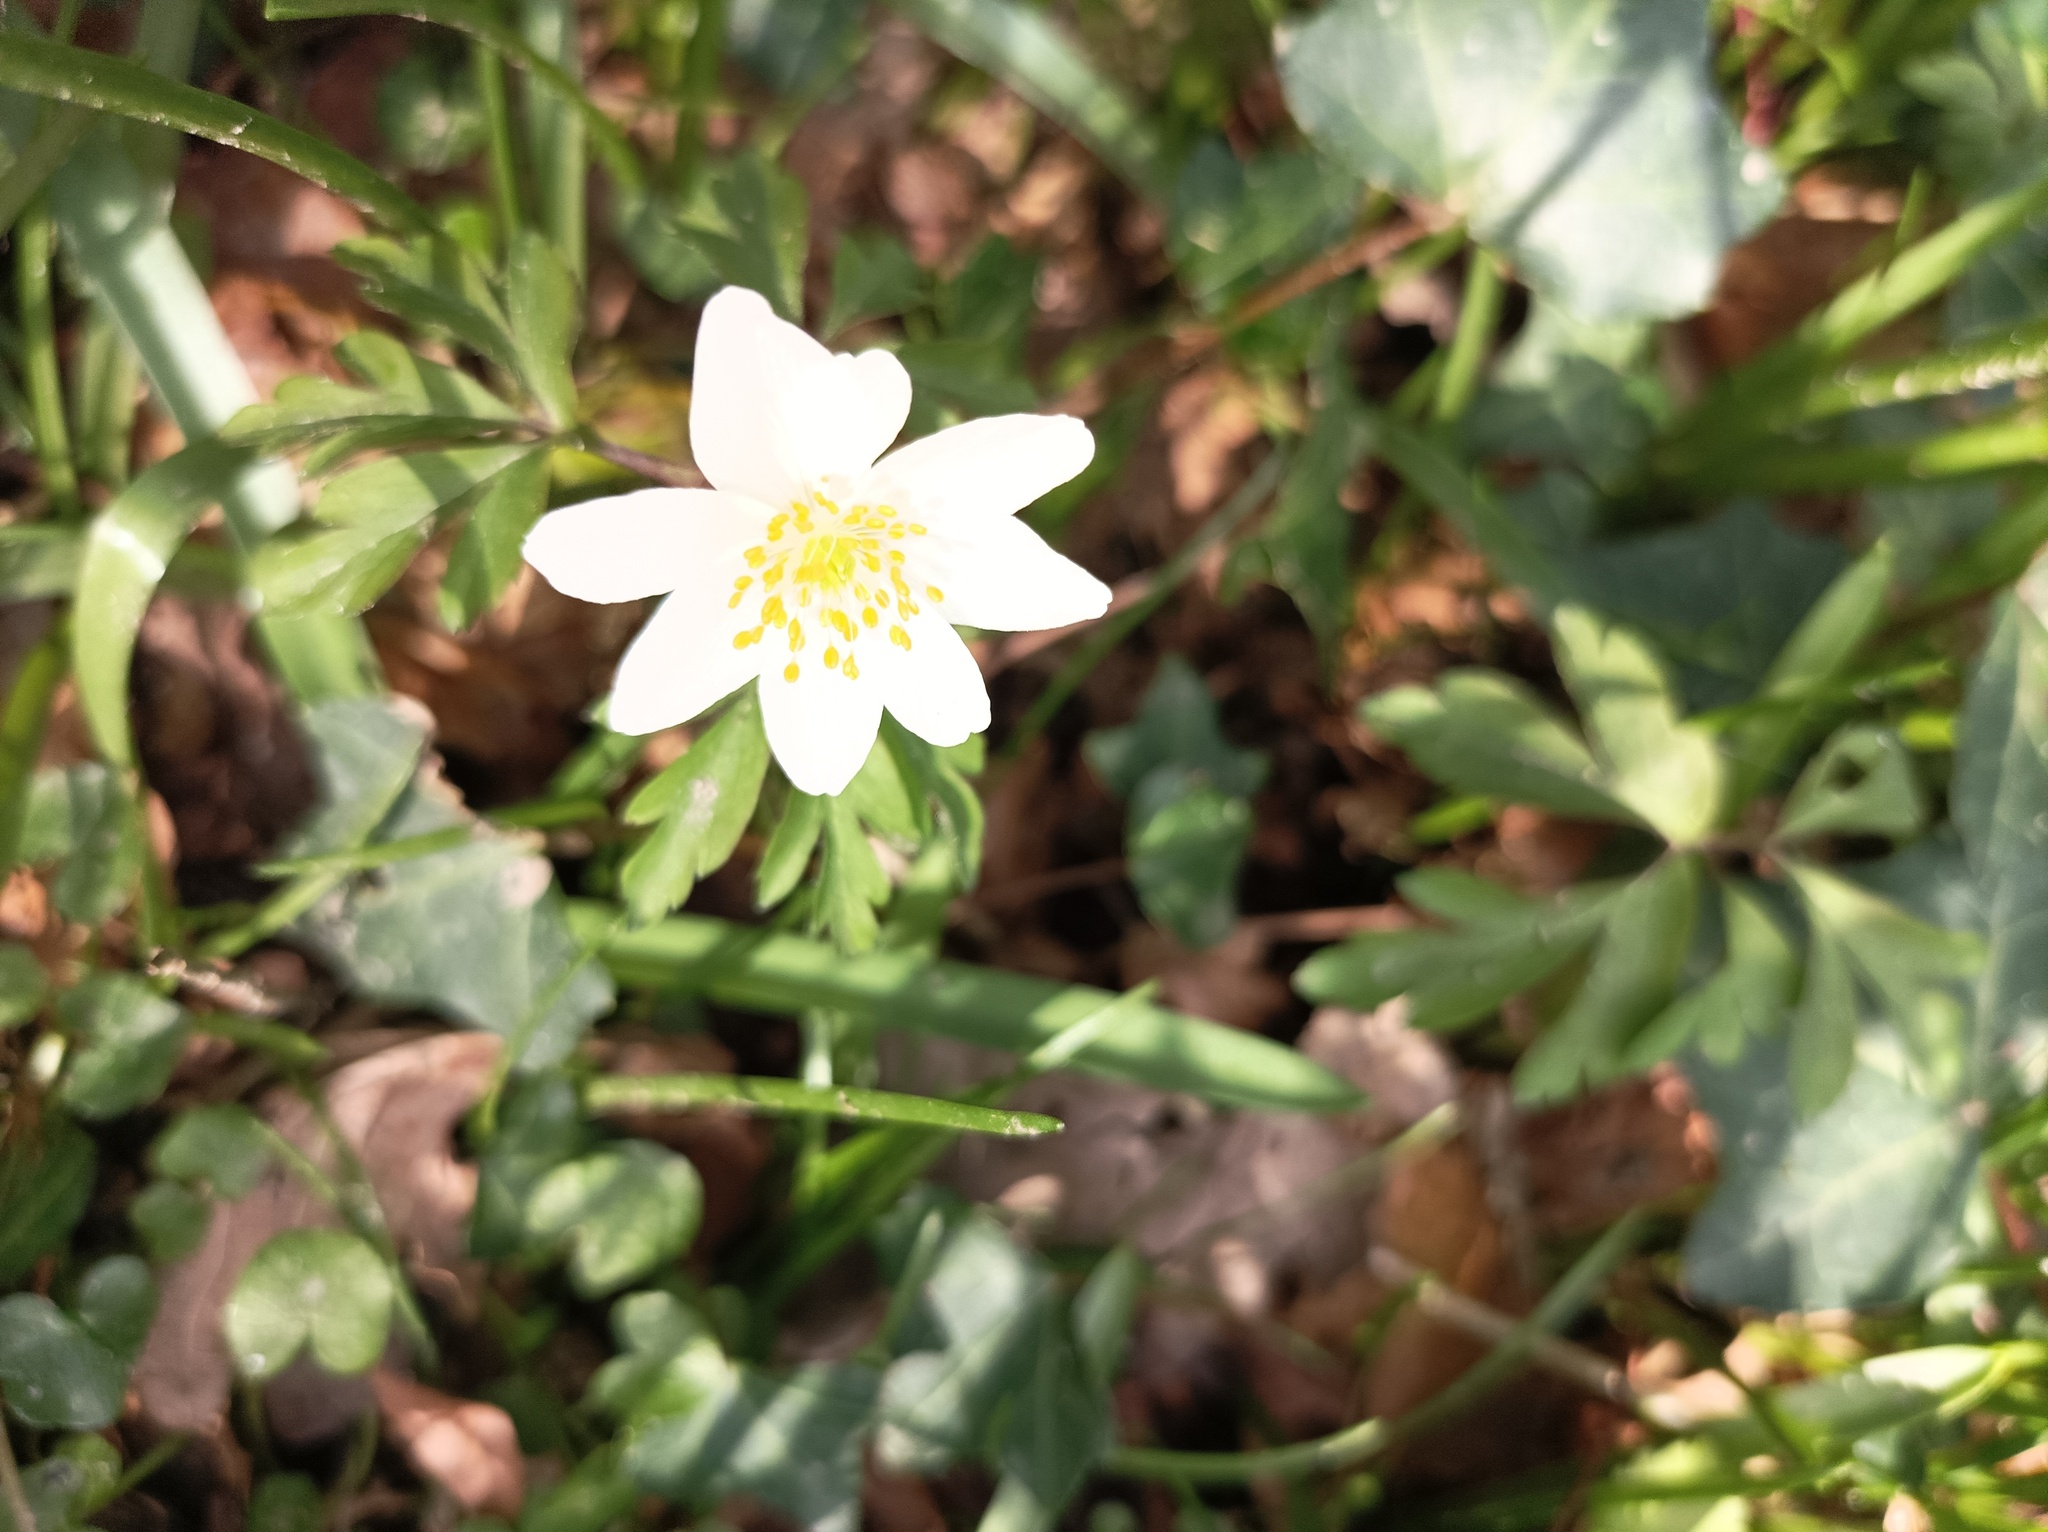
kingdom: Plantae
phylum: Tracheophyta
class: Magnoliopsida
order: Ranunculales
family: Ranunculaceae
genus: Anemone
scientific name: Anemone nemorosa
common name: Wood anemone
